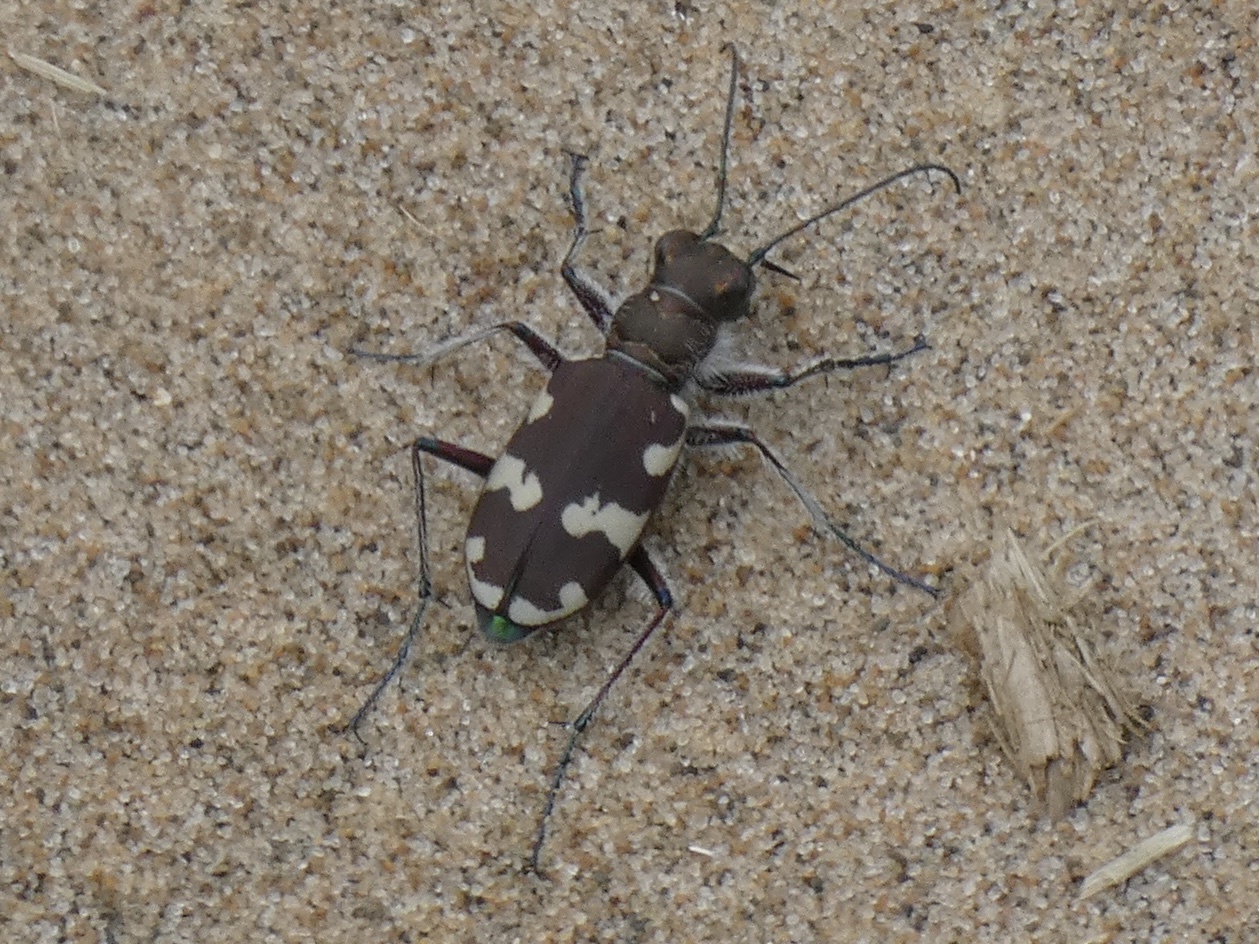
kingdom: Animalia
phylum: Arthropoda
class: Insecta
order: Coleoptera
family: Carabidae
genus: Cicindela
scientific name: Cicindela hybrida
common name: Northern dune tiger beetle
